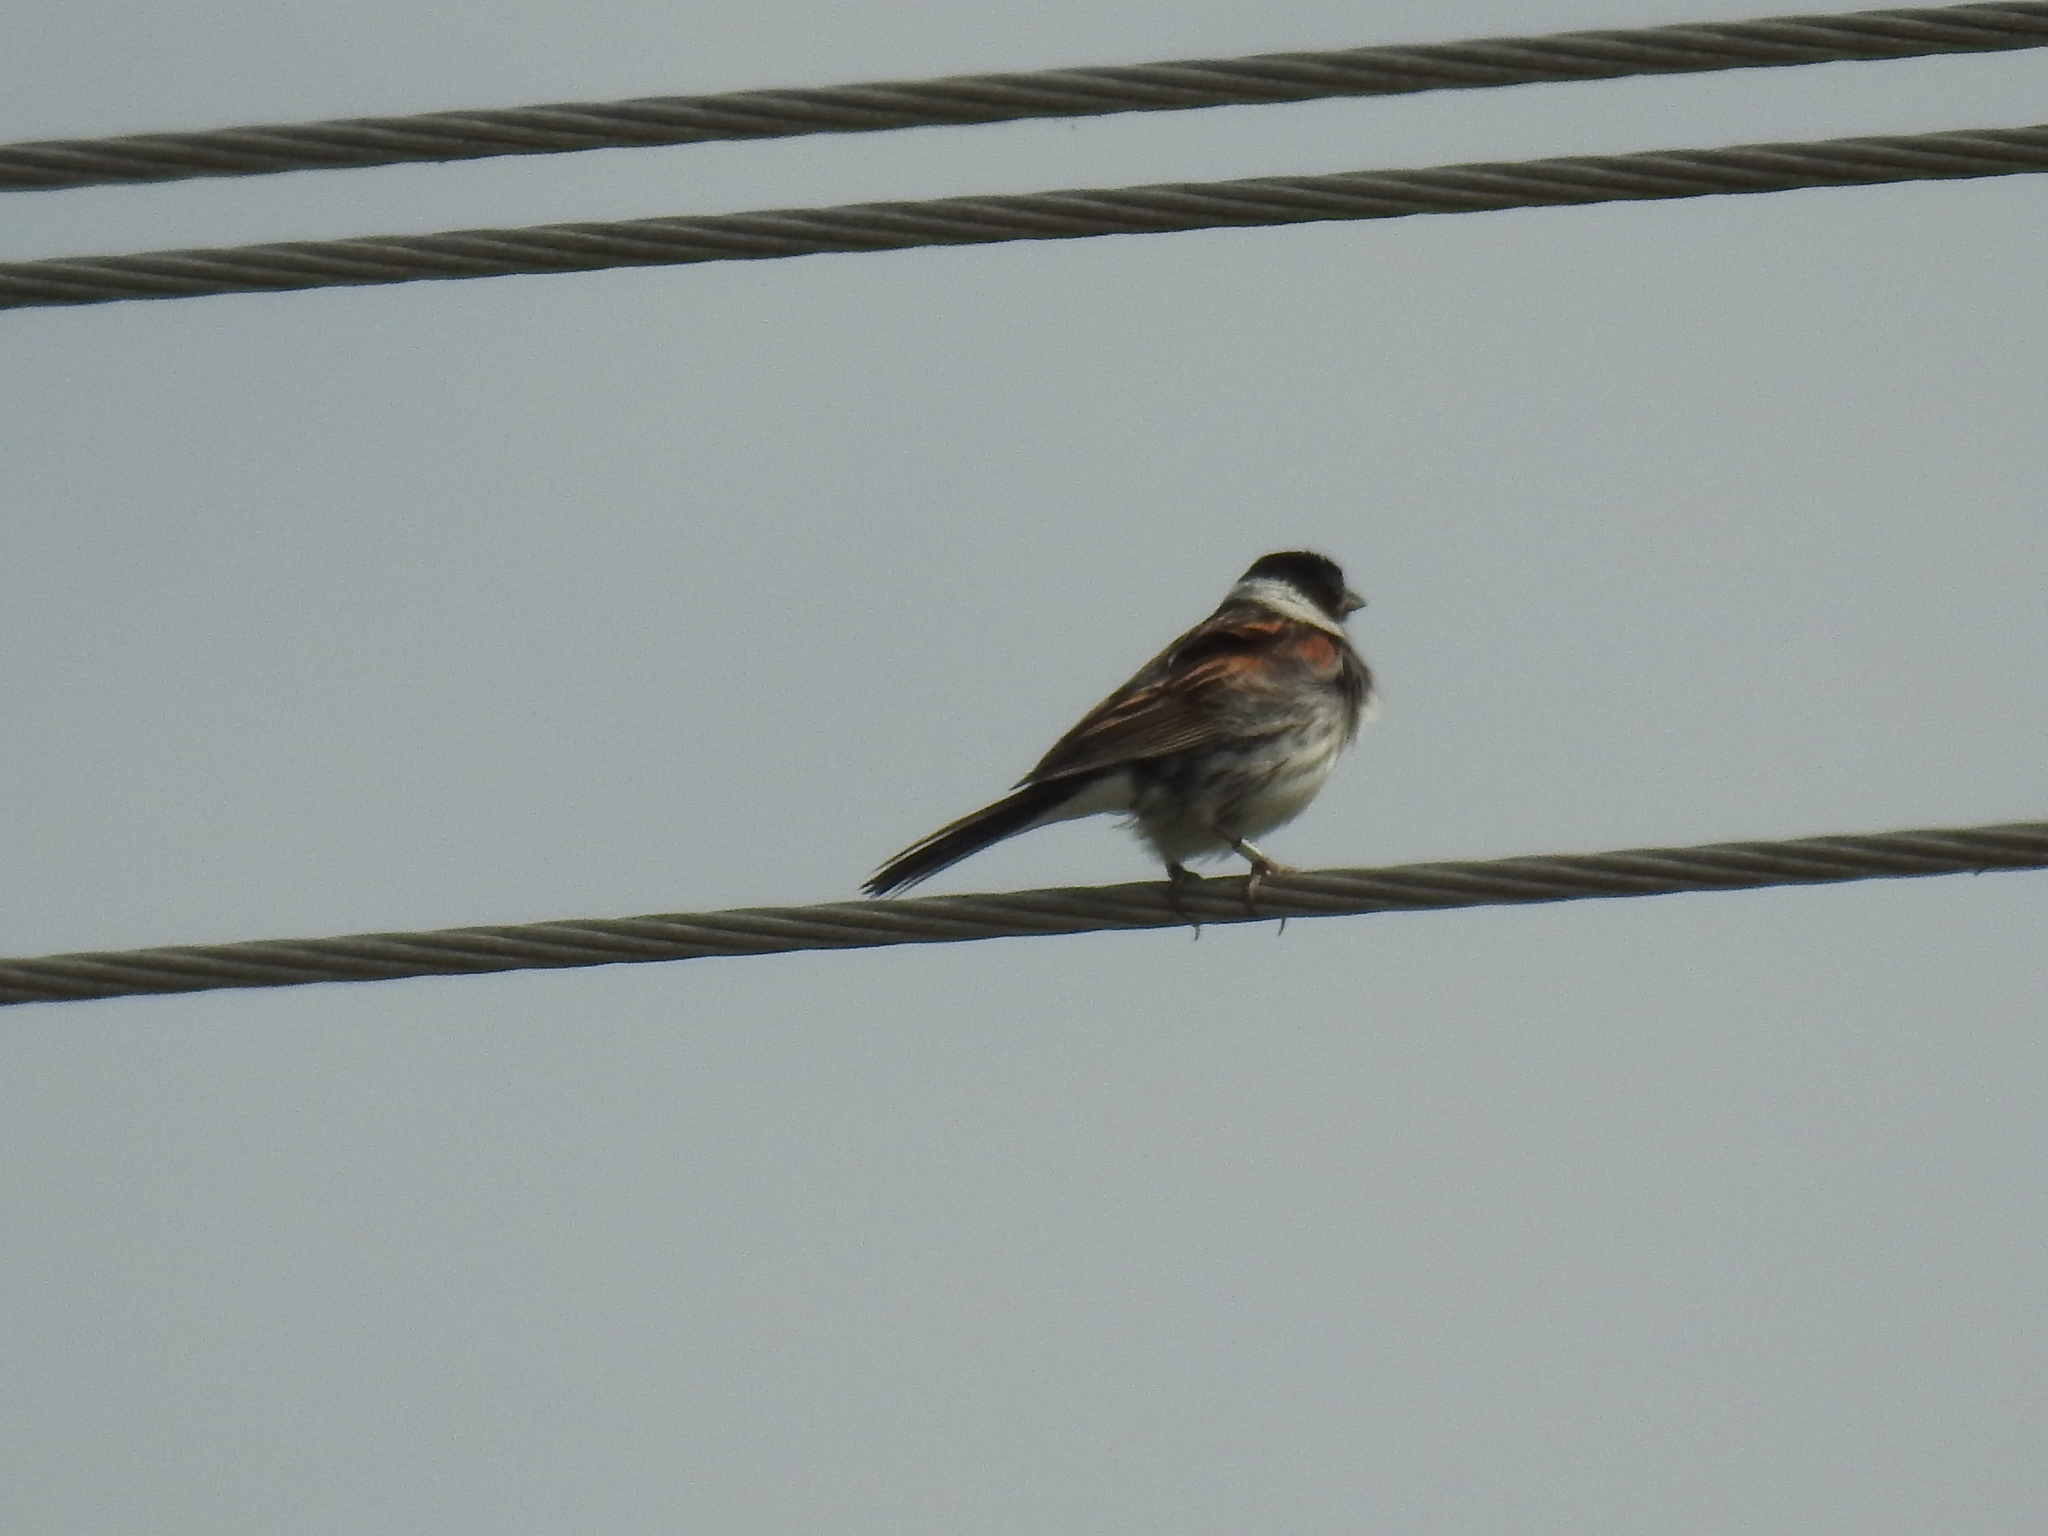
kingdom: Animalia
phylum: Chordata
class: Aves
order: Passeriformes
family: Emberizidae
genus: Emberiza
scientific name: Emberiza schoeniclus
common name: Reed bunting
